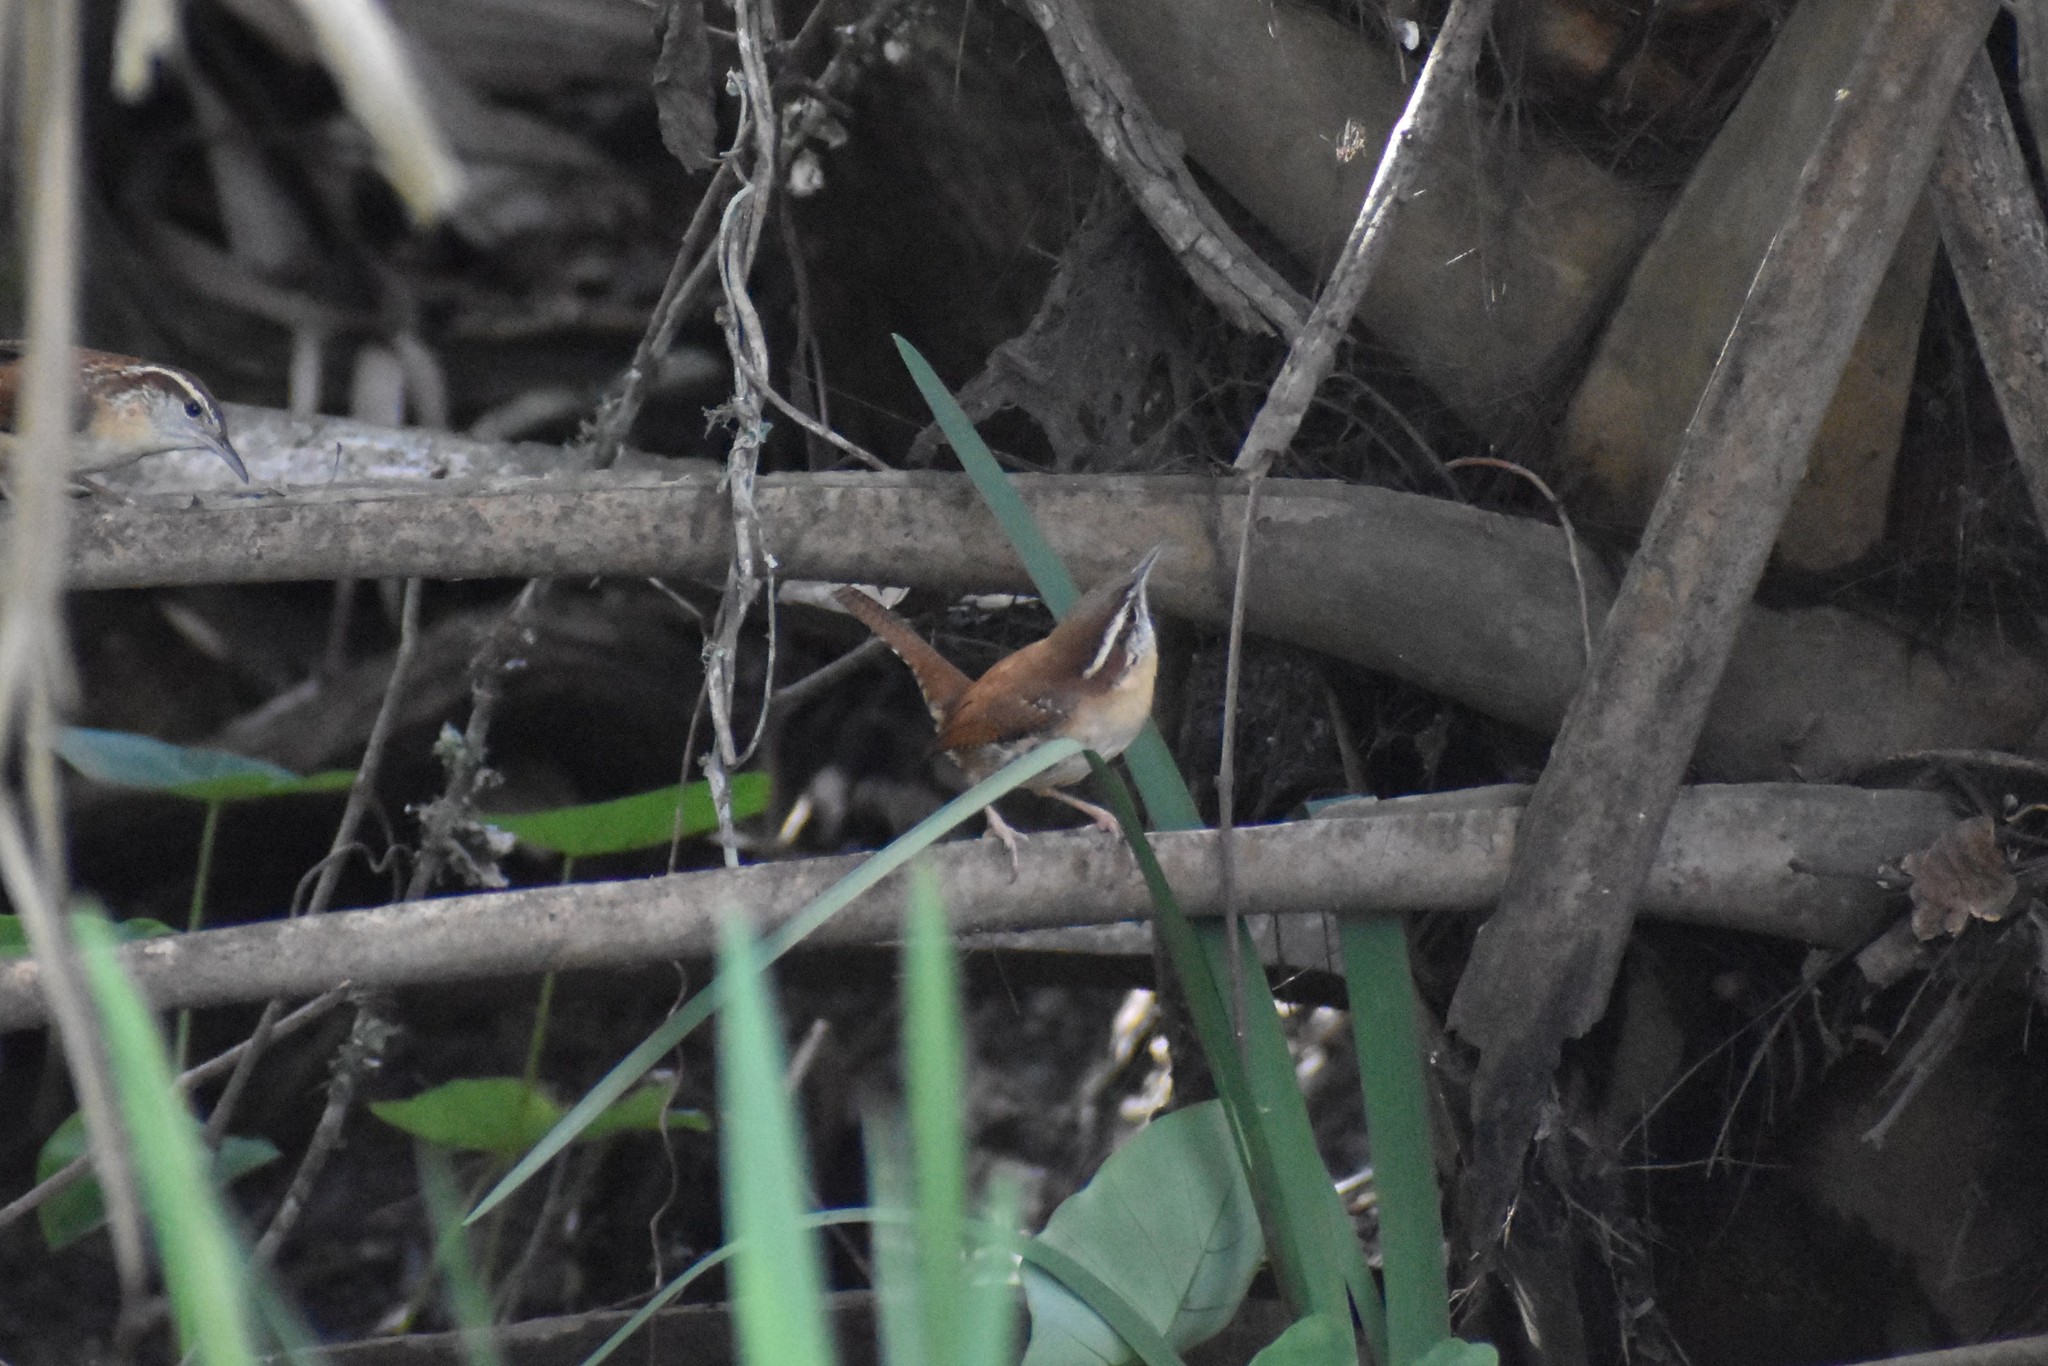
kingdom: Animalia
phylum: Chordata
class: Aves
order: Passeriformes
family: Troglodytidae
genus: Thryothorus
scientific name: Thryothorus ludovicianus
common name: Carolina wren
